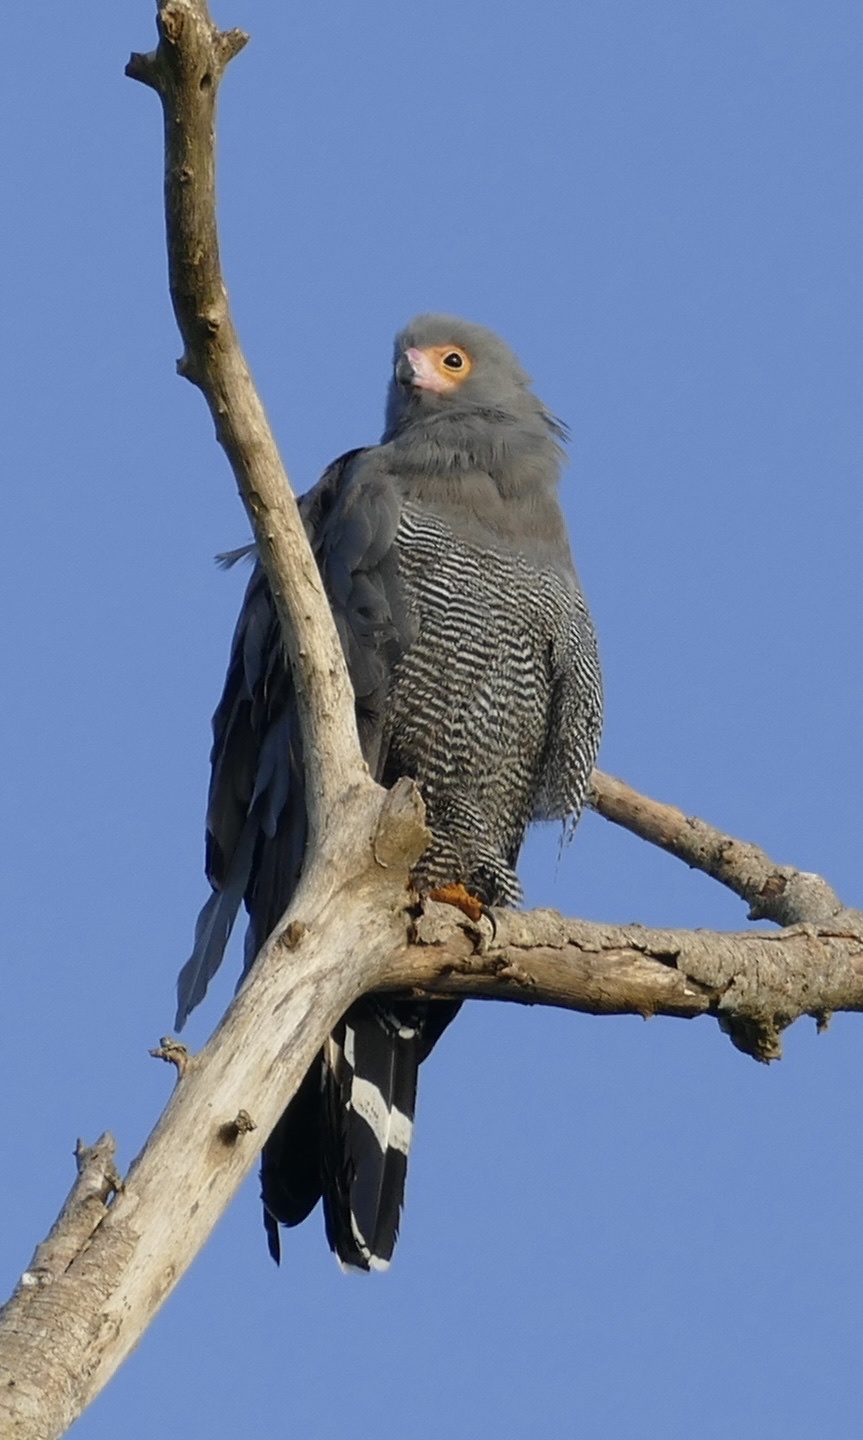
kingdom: Animalia
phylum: Chordata
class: Aves
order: Accipitriformes
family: Accipitridae
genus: Polyboroides
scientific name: Polyboroides typus
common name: African harrier-hawk
